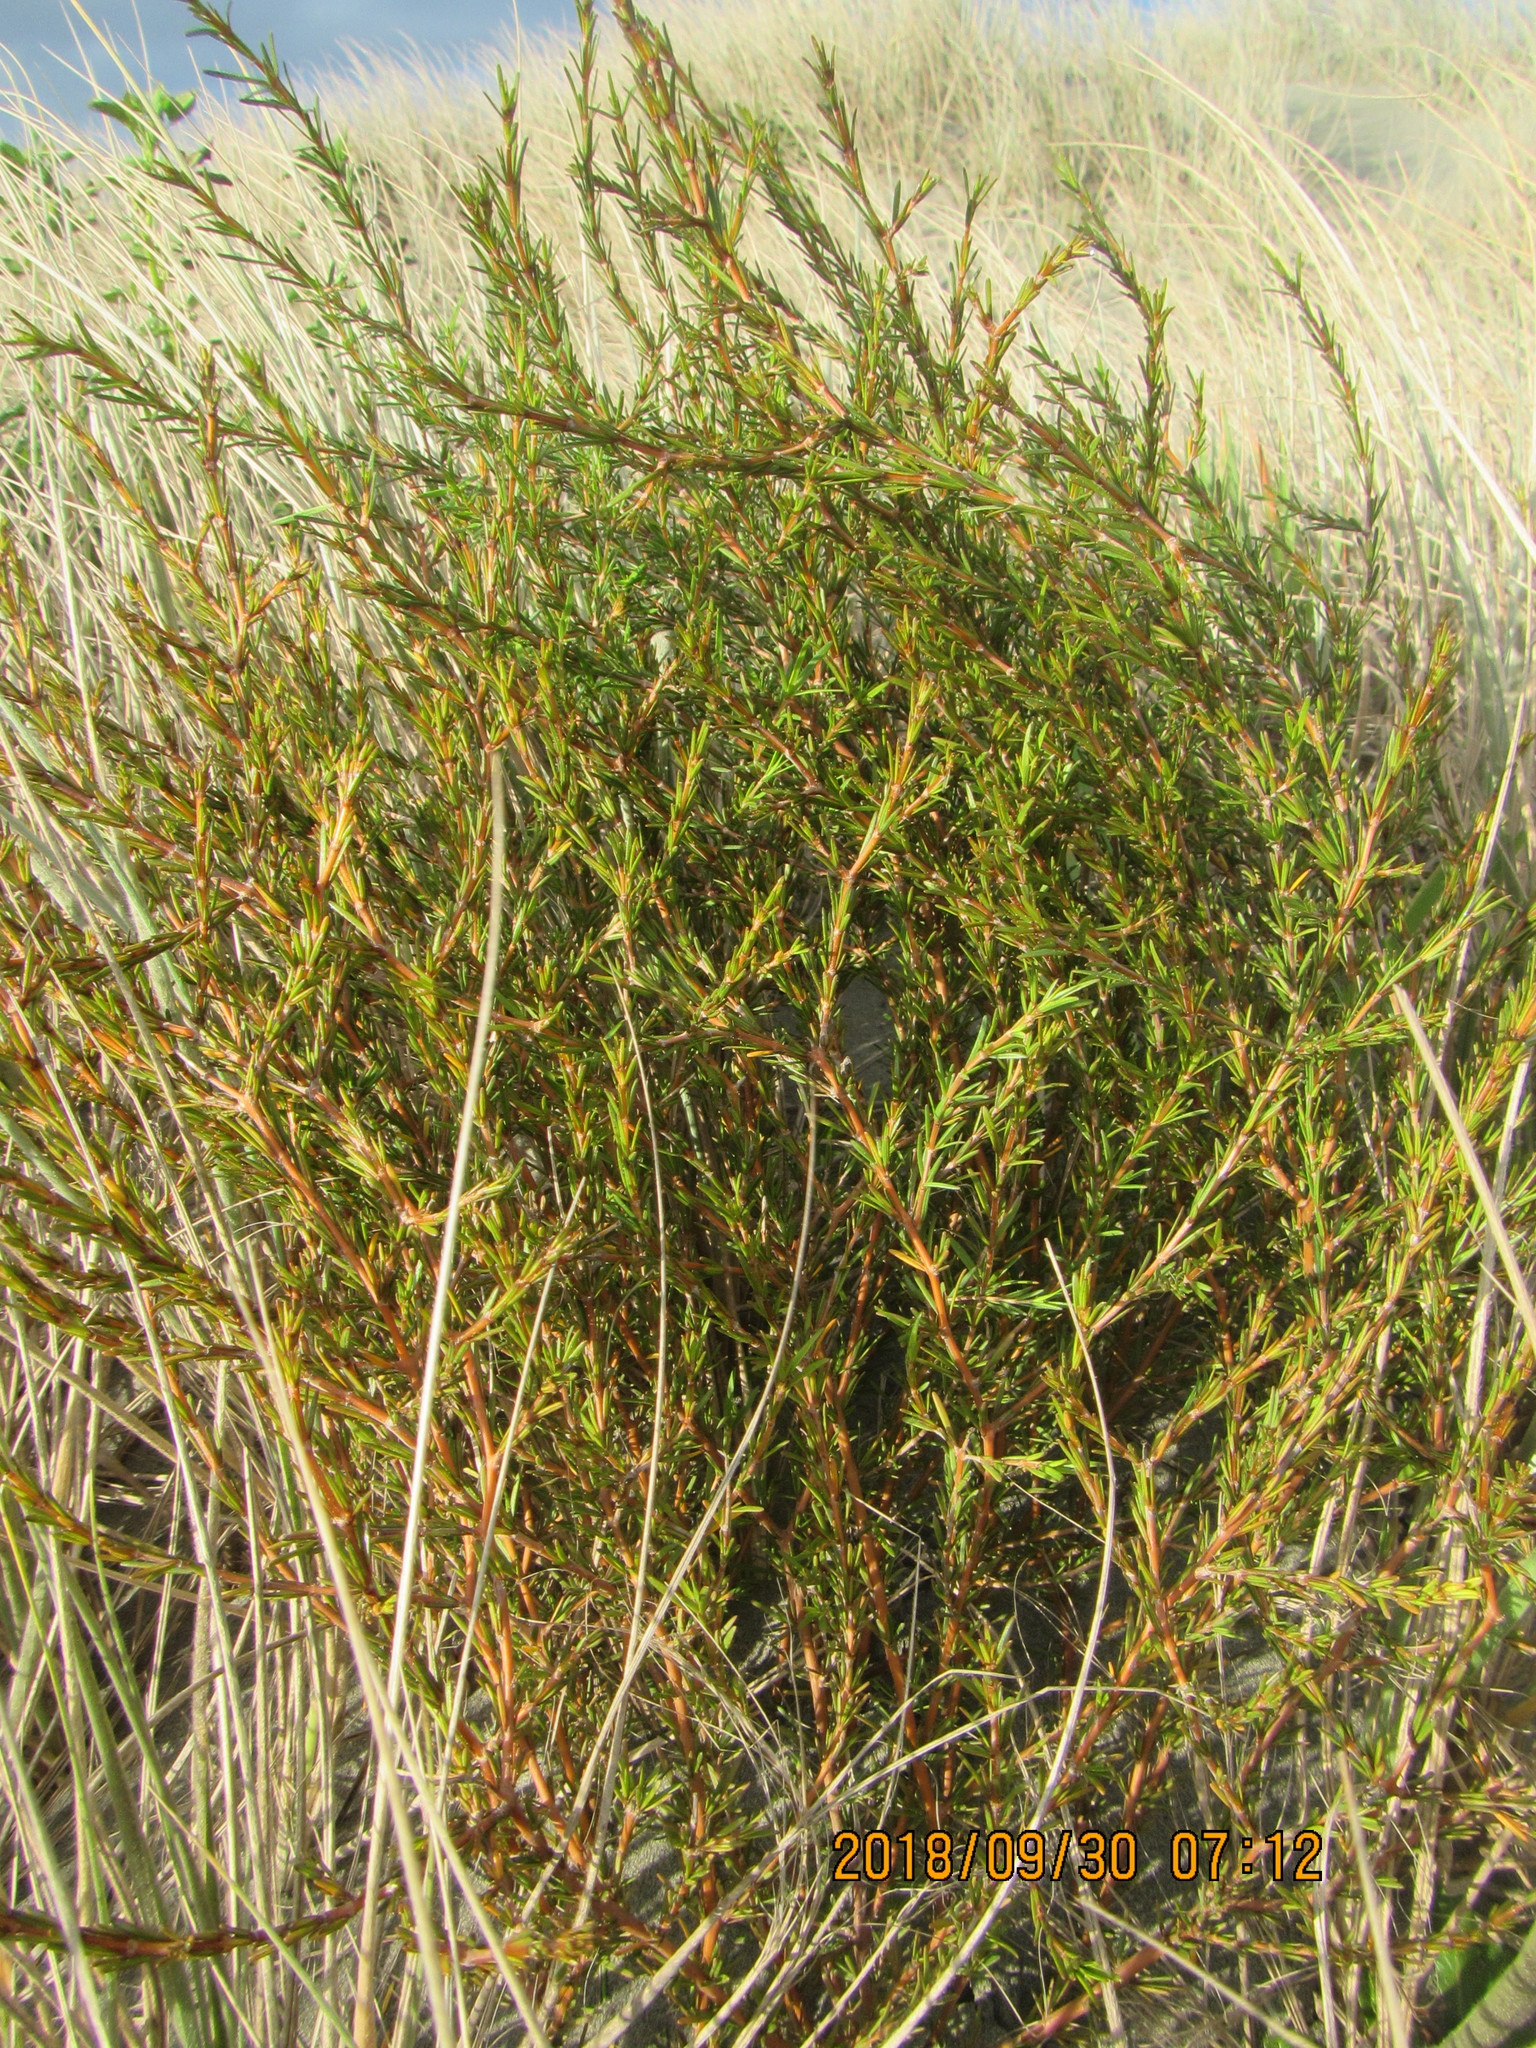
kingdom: Plantae
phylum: Tracheophyta
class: Magnoliopsida
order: Gentianales
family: Rubiaceae
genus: Coprosma
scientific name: Coprosma acerosa
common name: Sand coprosma
